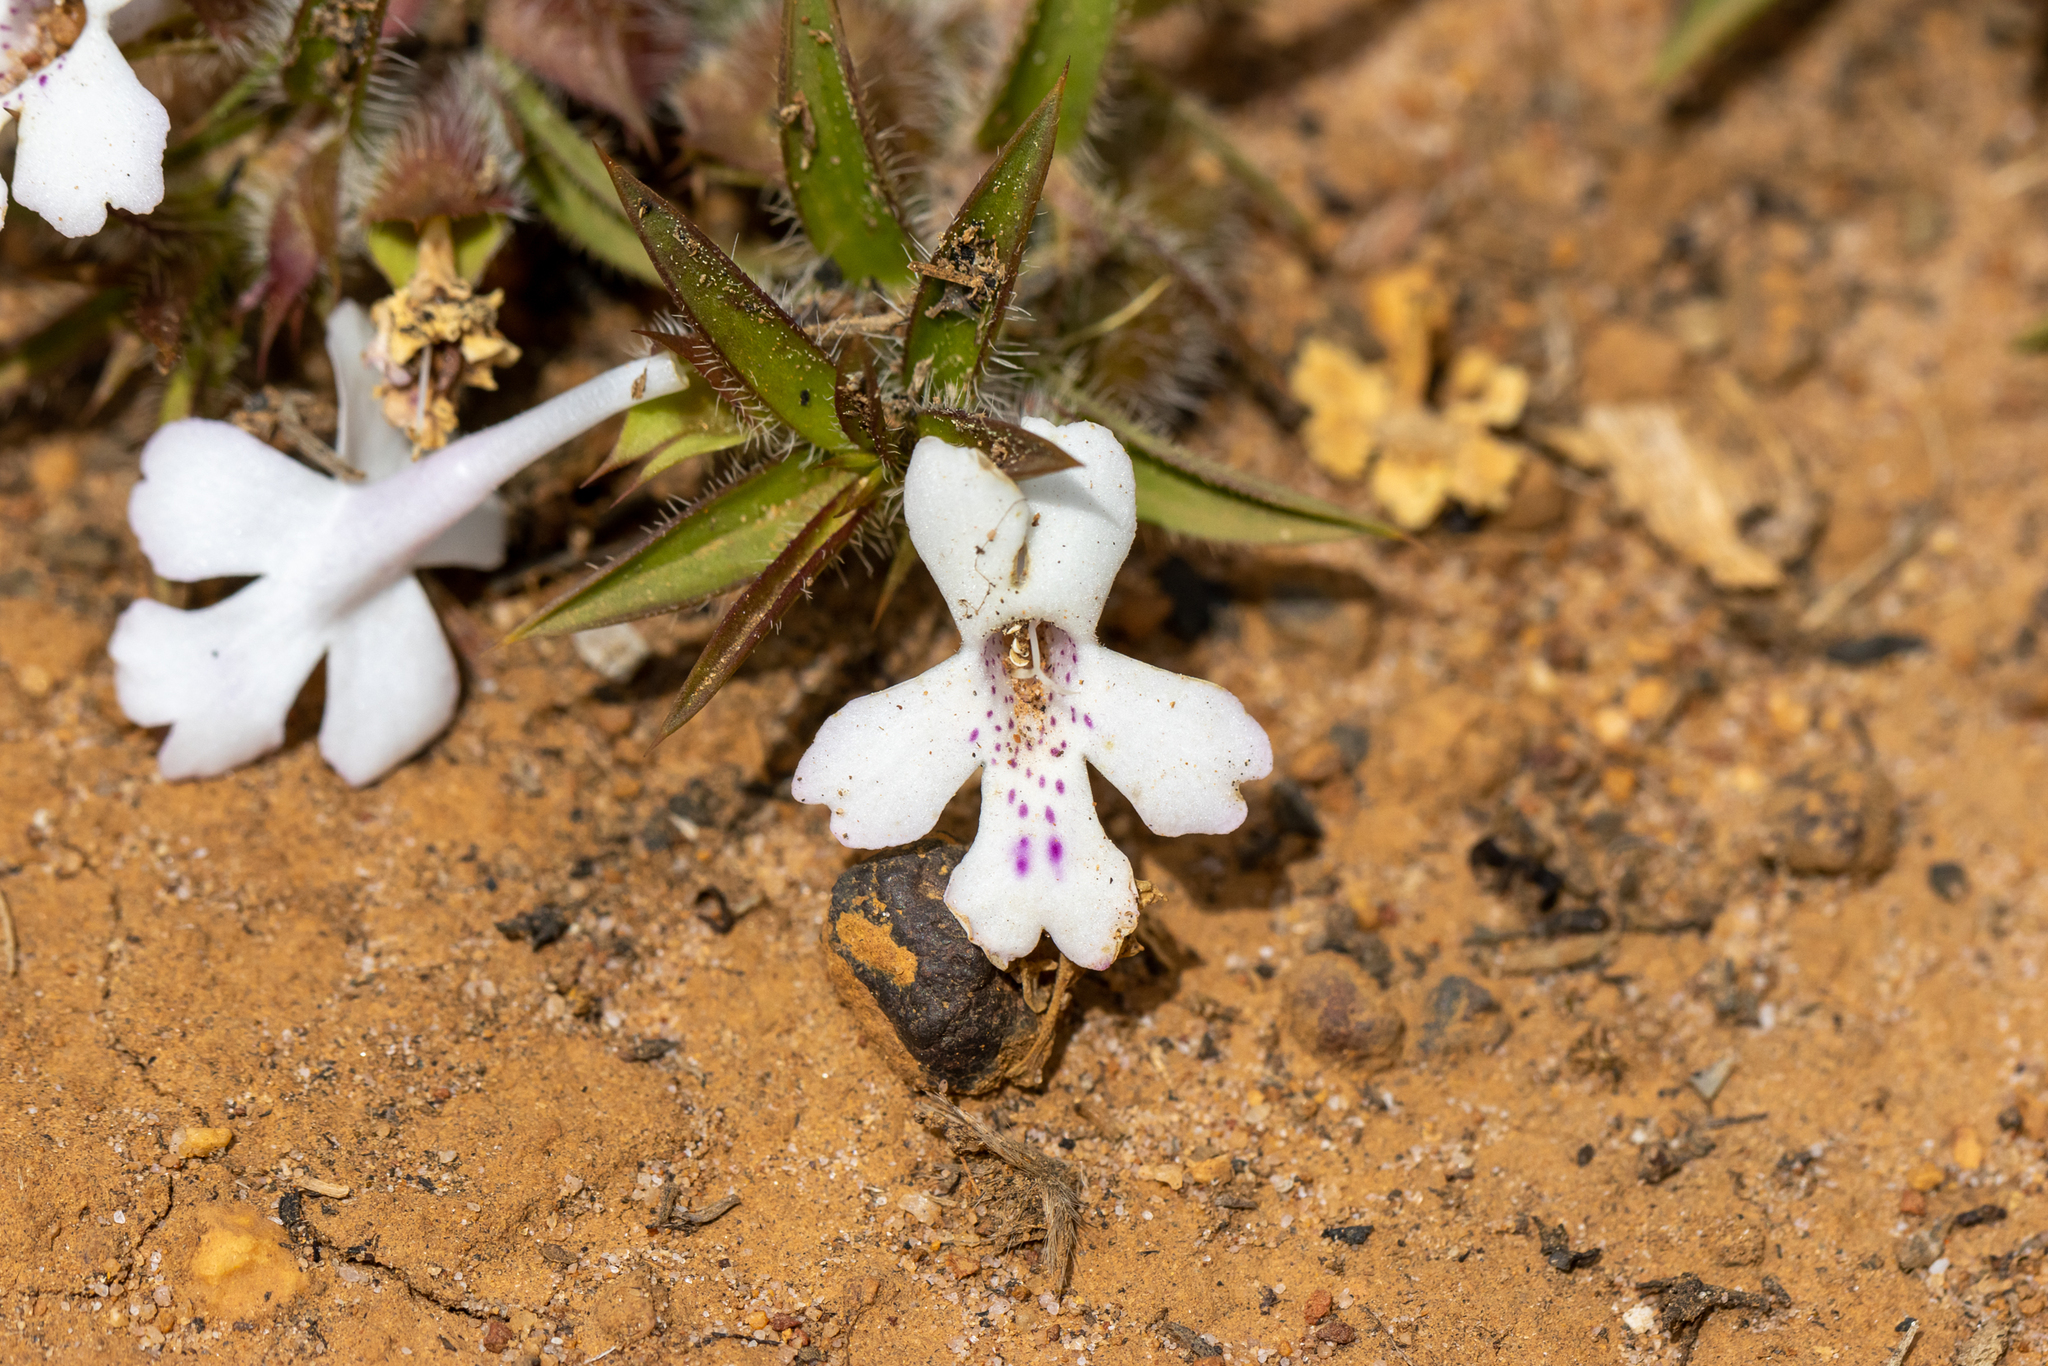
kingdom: Plantae
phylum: Tracheophyta
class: Magnoliopsida
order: Lamiales
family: Lamiaceae
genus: Hemiandra
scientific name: Hemiandra pungens
